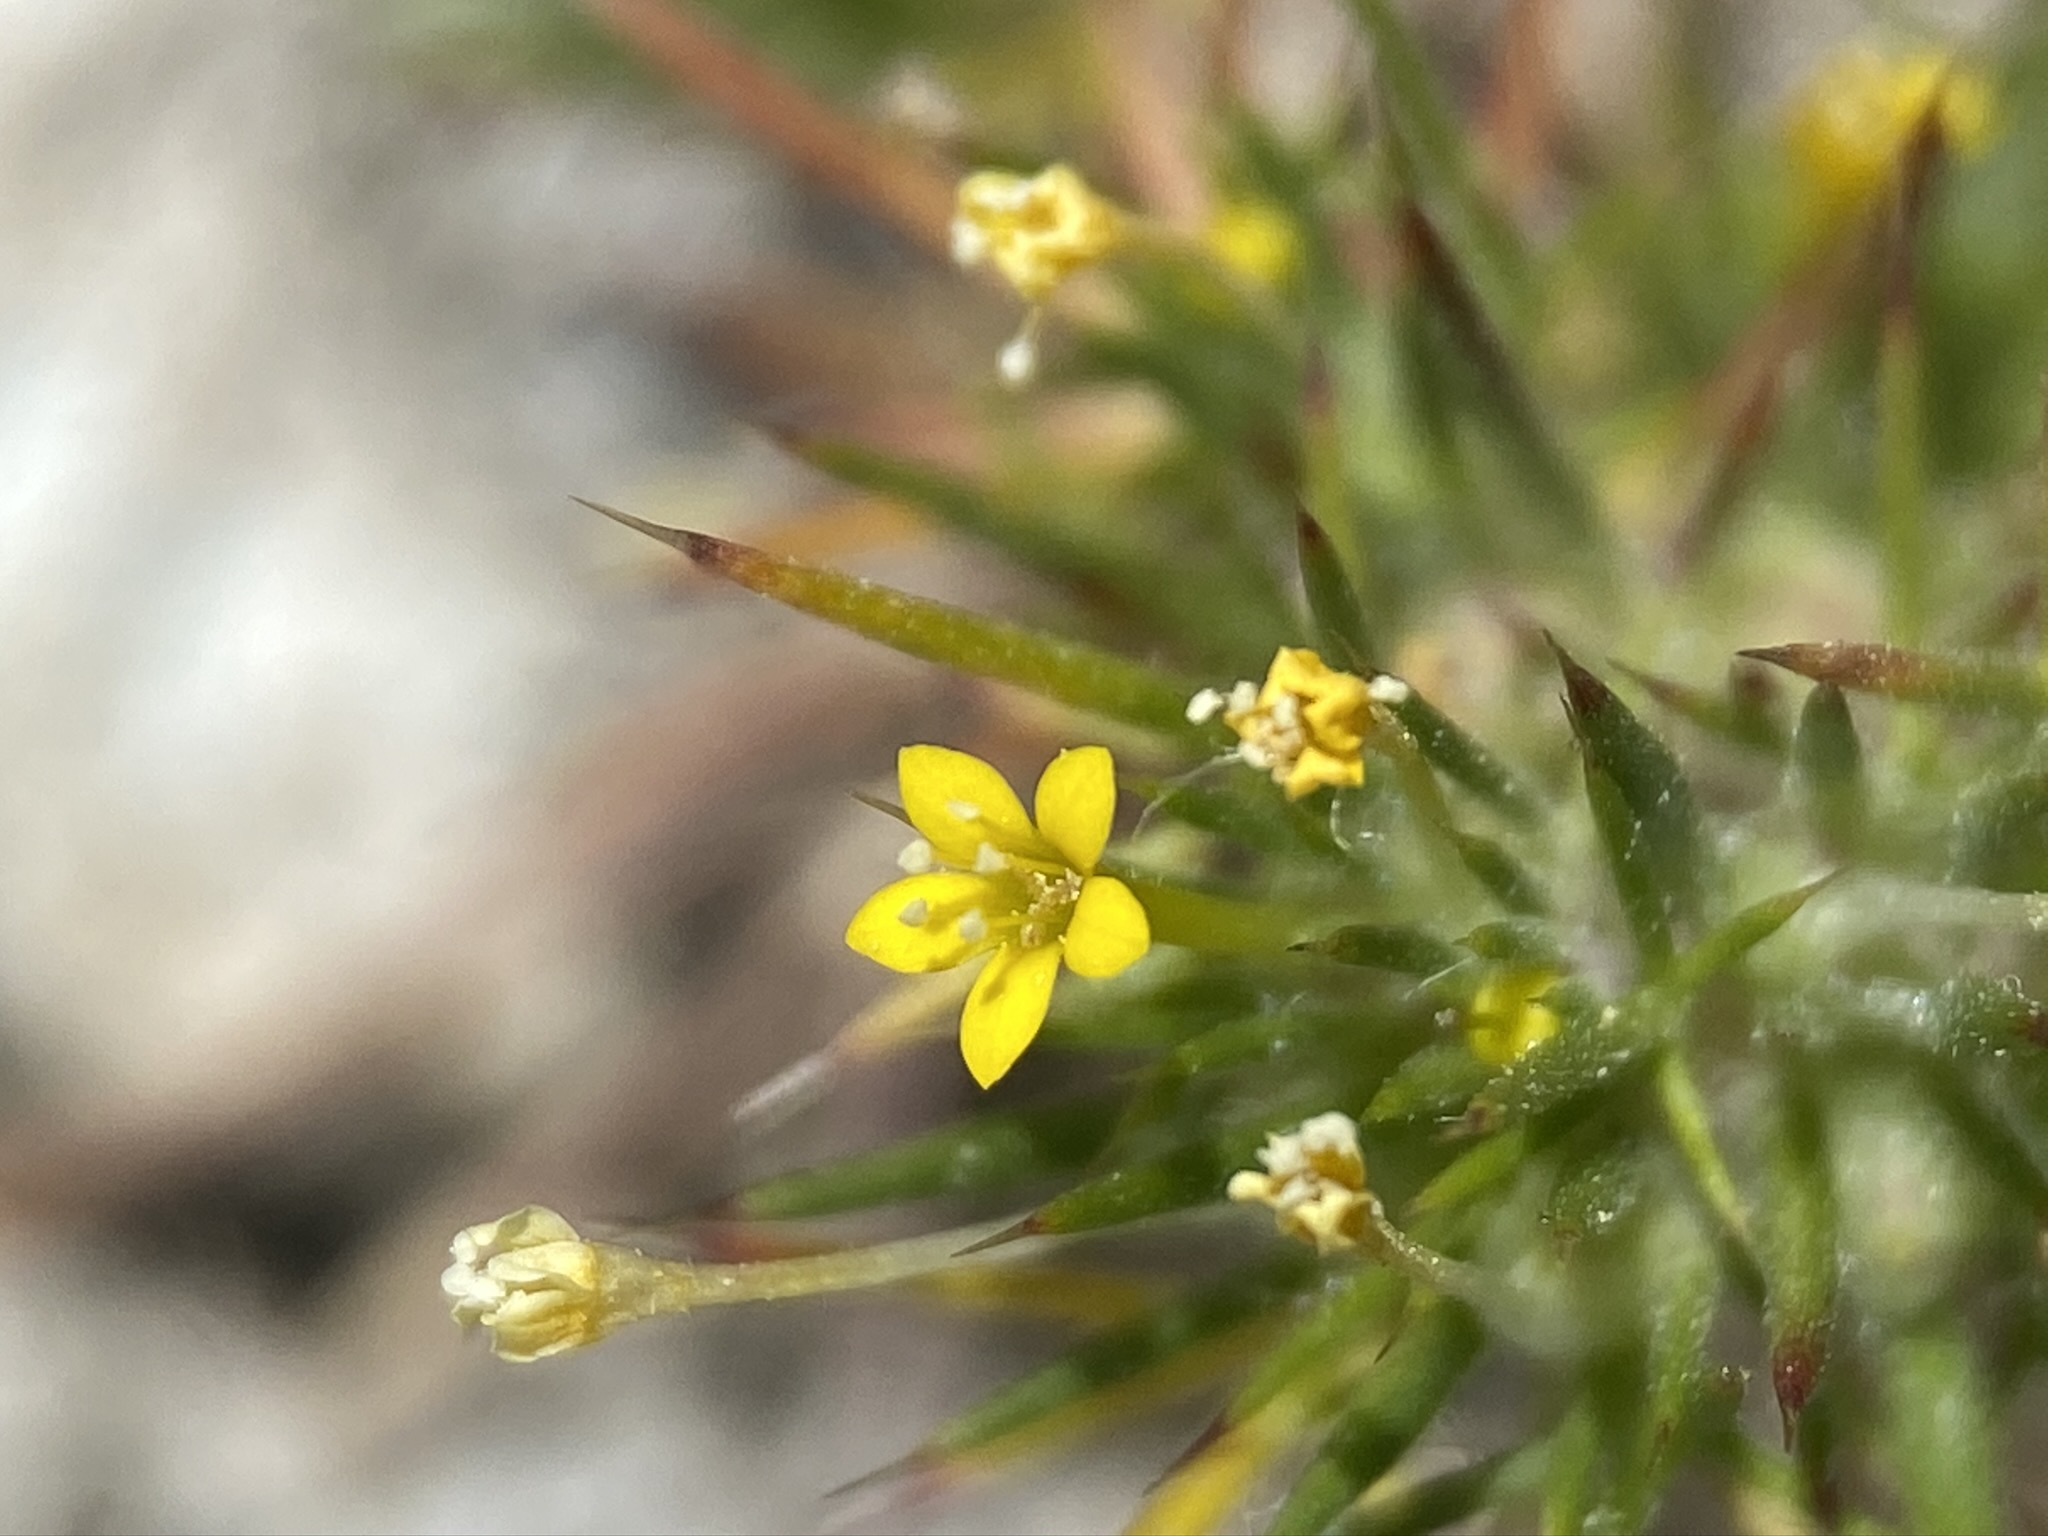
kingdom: Plantae
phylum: Tracheophyta
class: Magnoliopsida
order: Ericales
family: Polemoniaceae
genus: Navarretia
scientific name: Navarretia breweri
